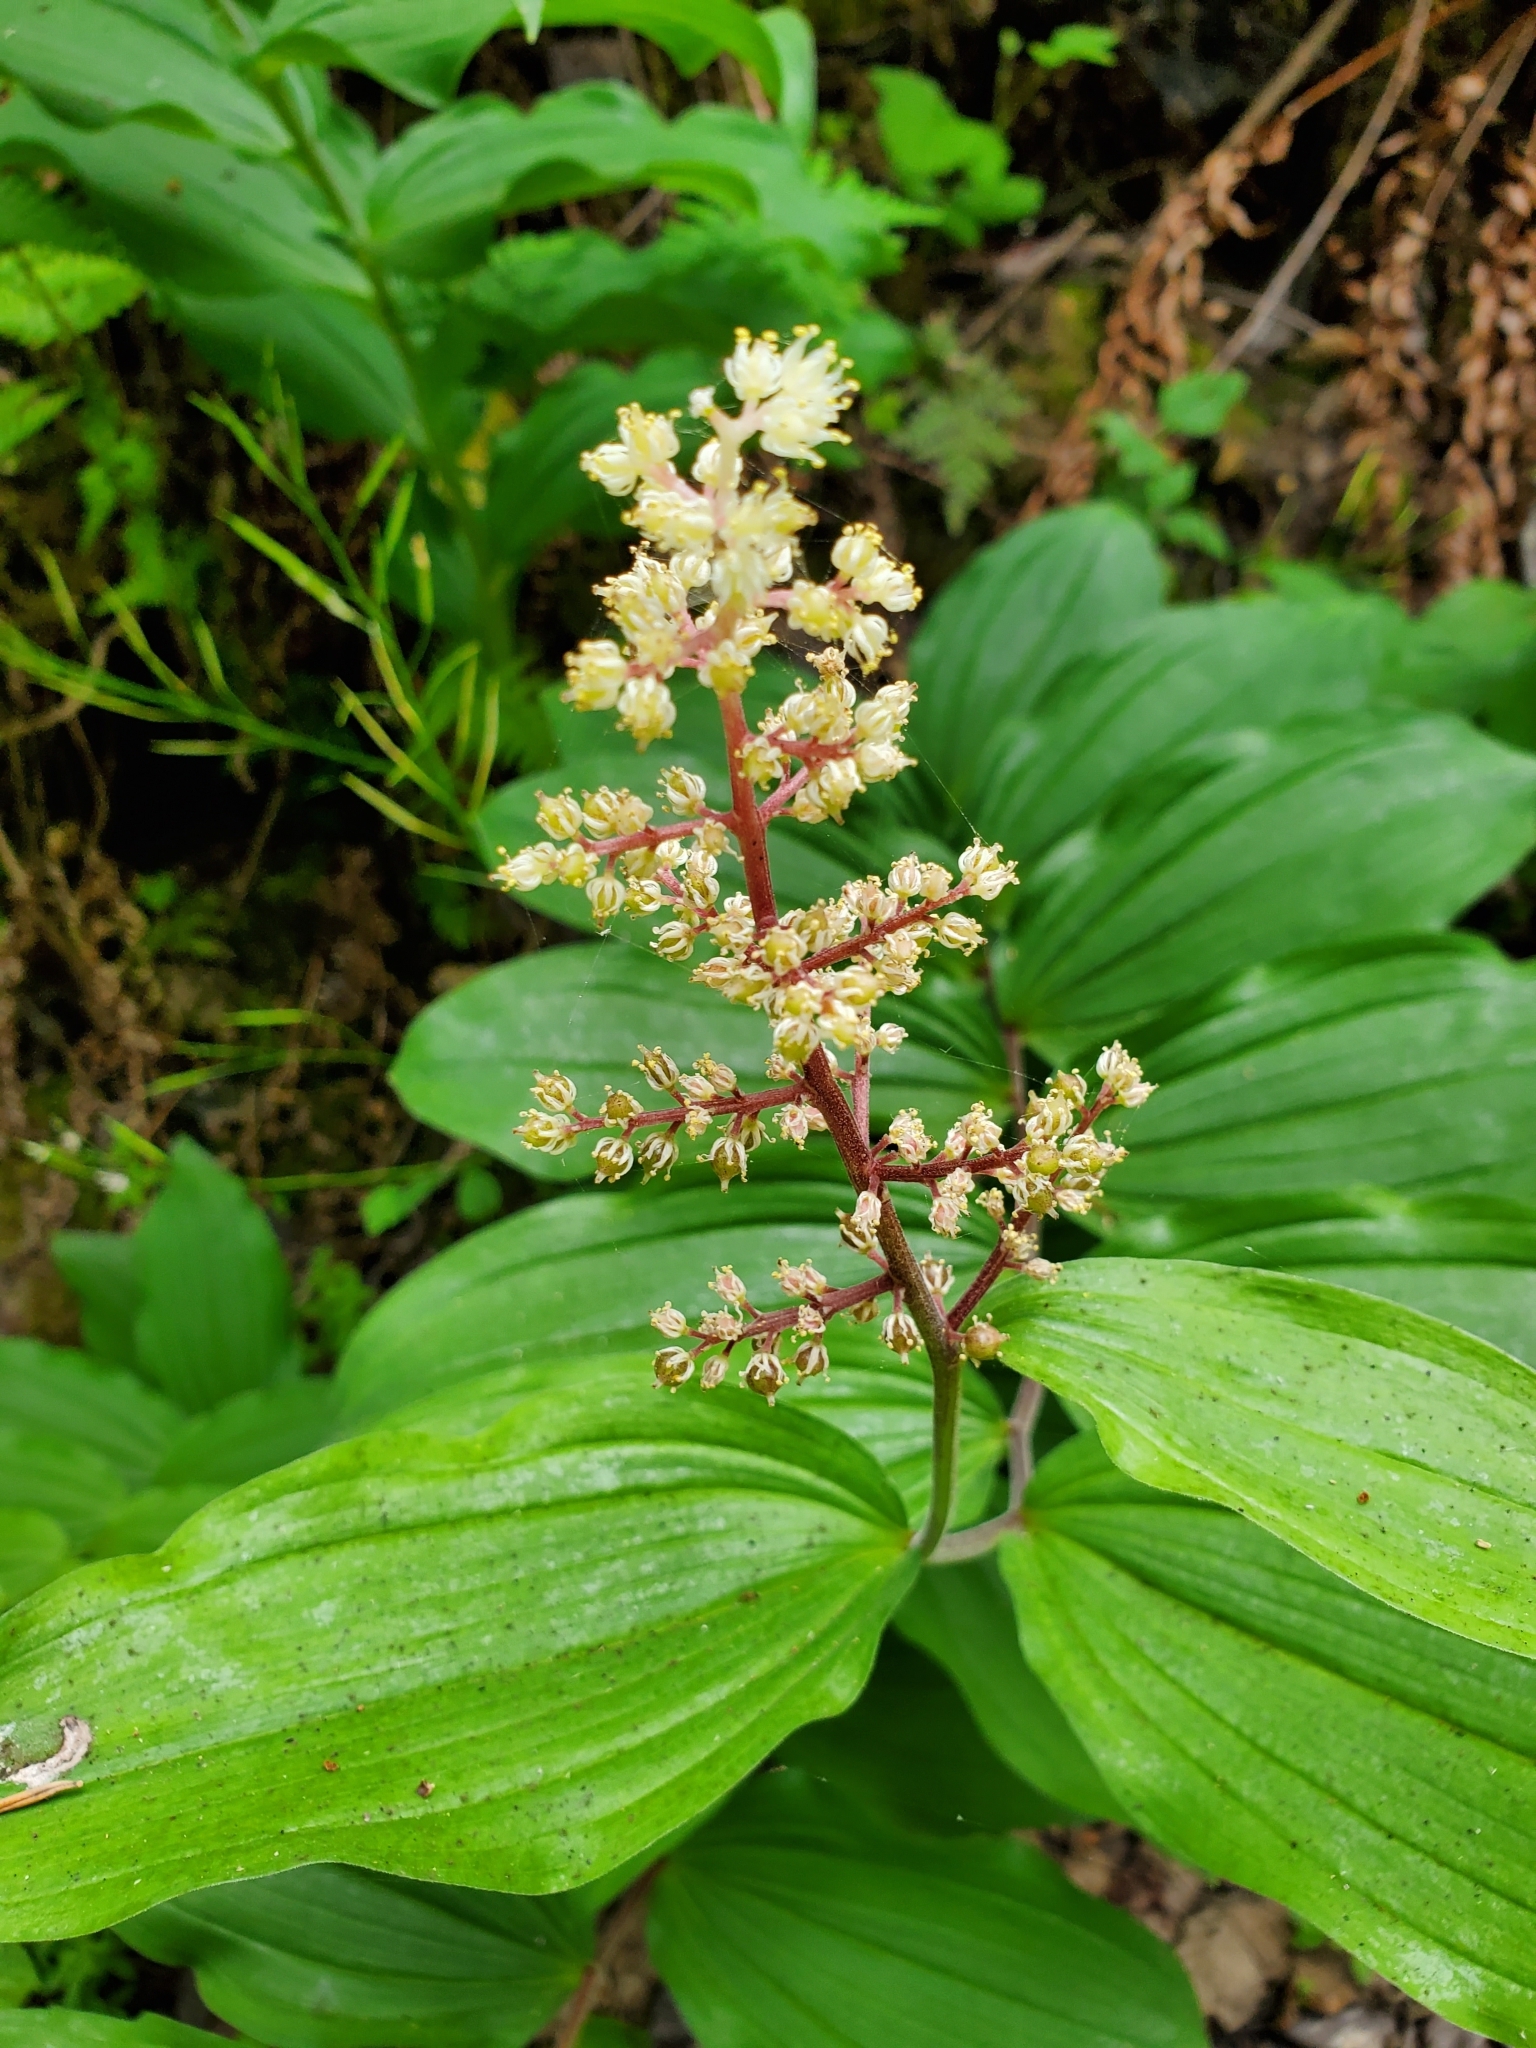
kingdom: Plantae
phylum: Tracheophyta
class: Liliopsida
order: Asparagales
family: Asparagaceae
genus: Maianthemum
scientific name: Maianthemum racemosum
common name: False spikenard
